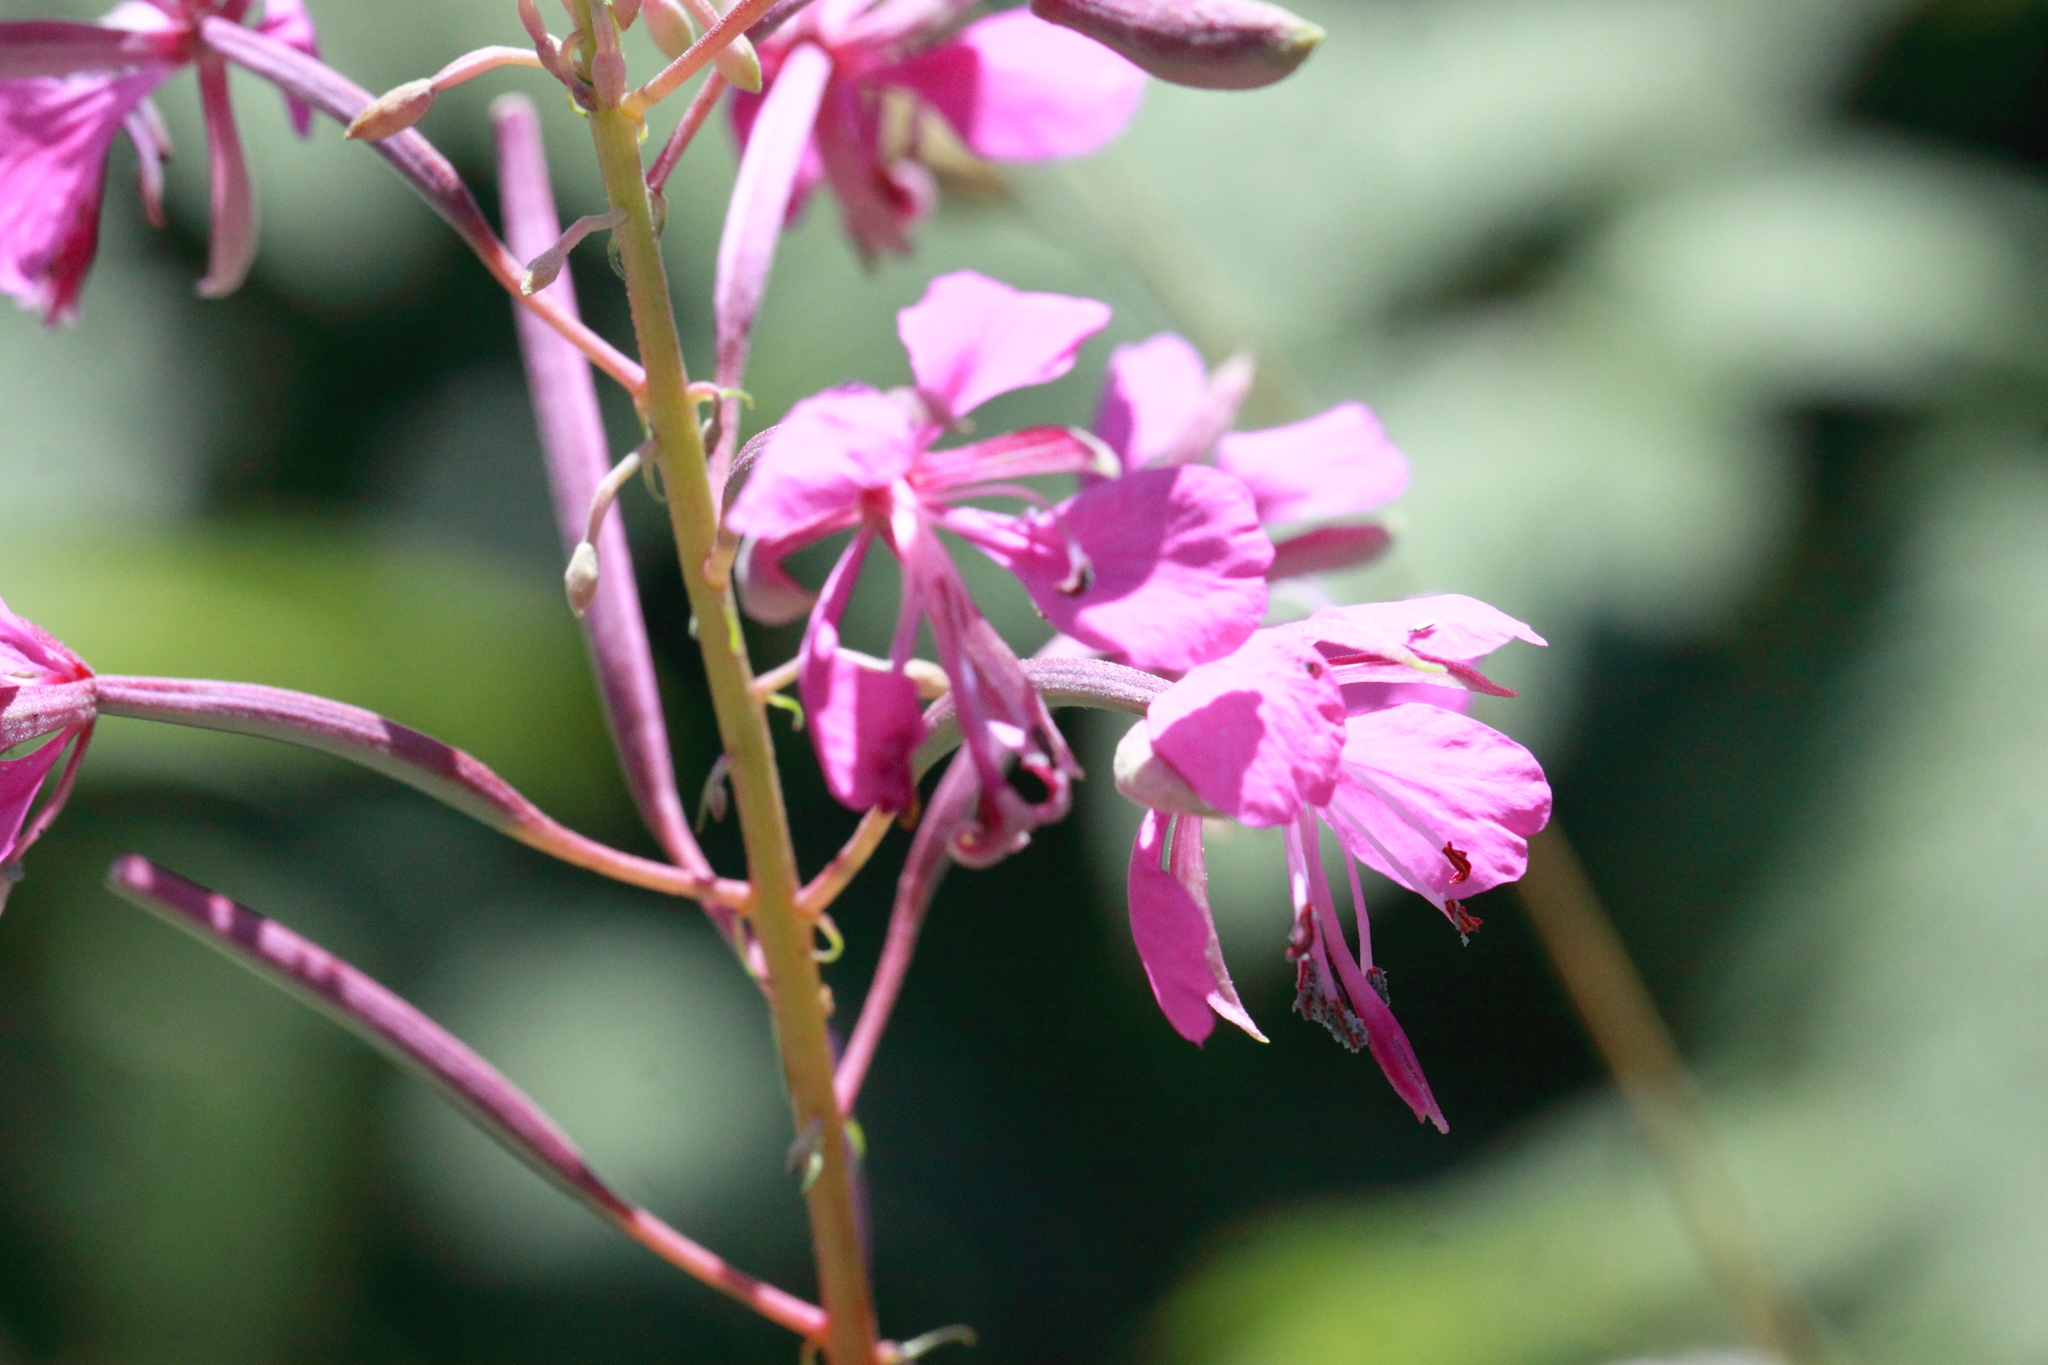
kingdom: Plantae
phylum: Tracheophyta
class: Magnoliopsida
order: Myrtales
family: Onagraceae
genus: Chamaenerion
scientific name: Chamaenerion angustifolium
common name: Fireweed
